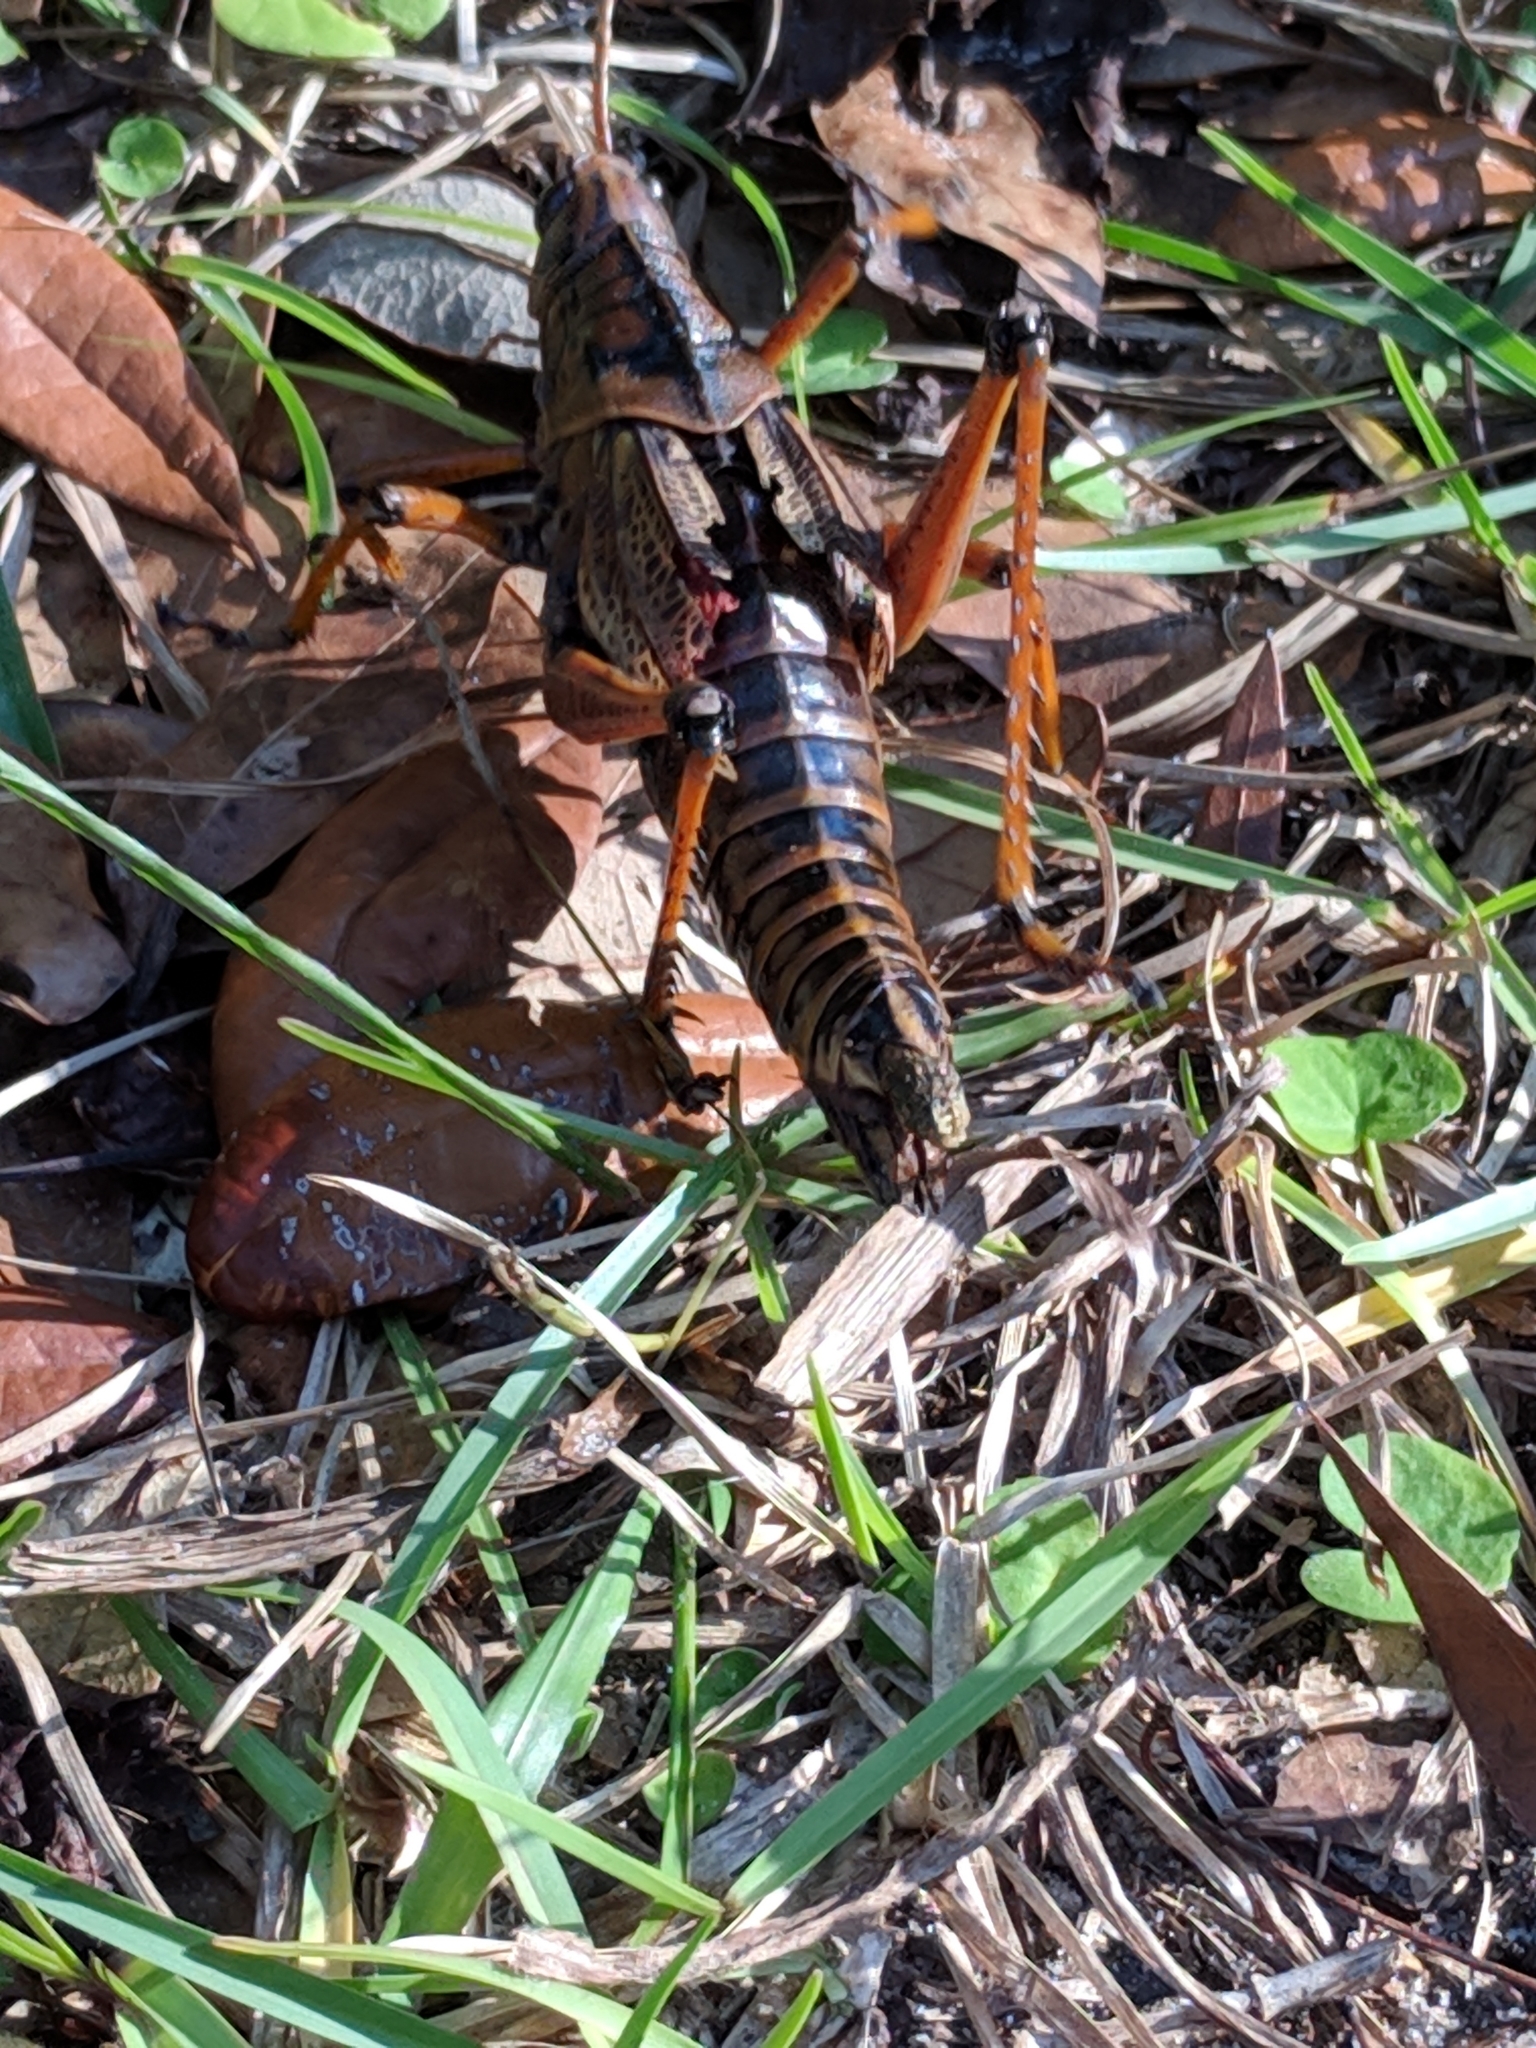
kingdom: Animalia
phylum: Arthropoda
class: Insecta
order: Orthoptera
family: Romaleidae
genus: Romalea
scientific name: Romalea microptera
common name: Eastern lubber grasshopper
